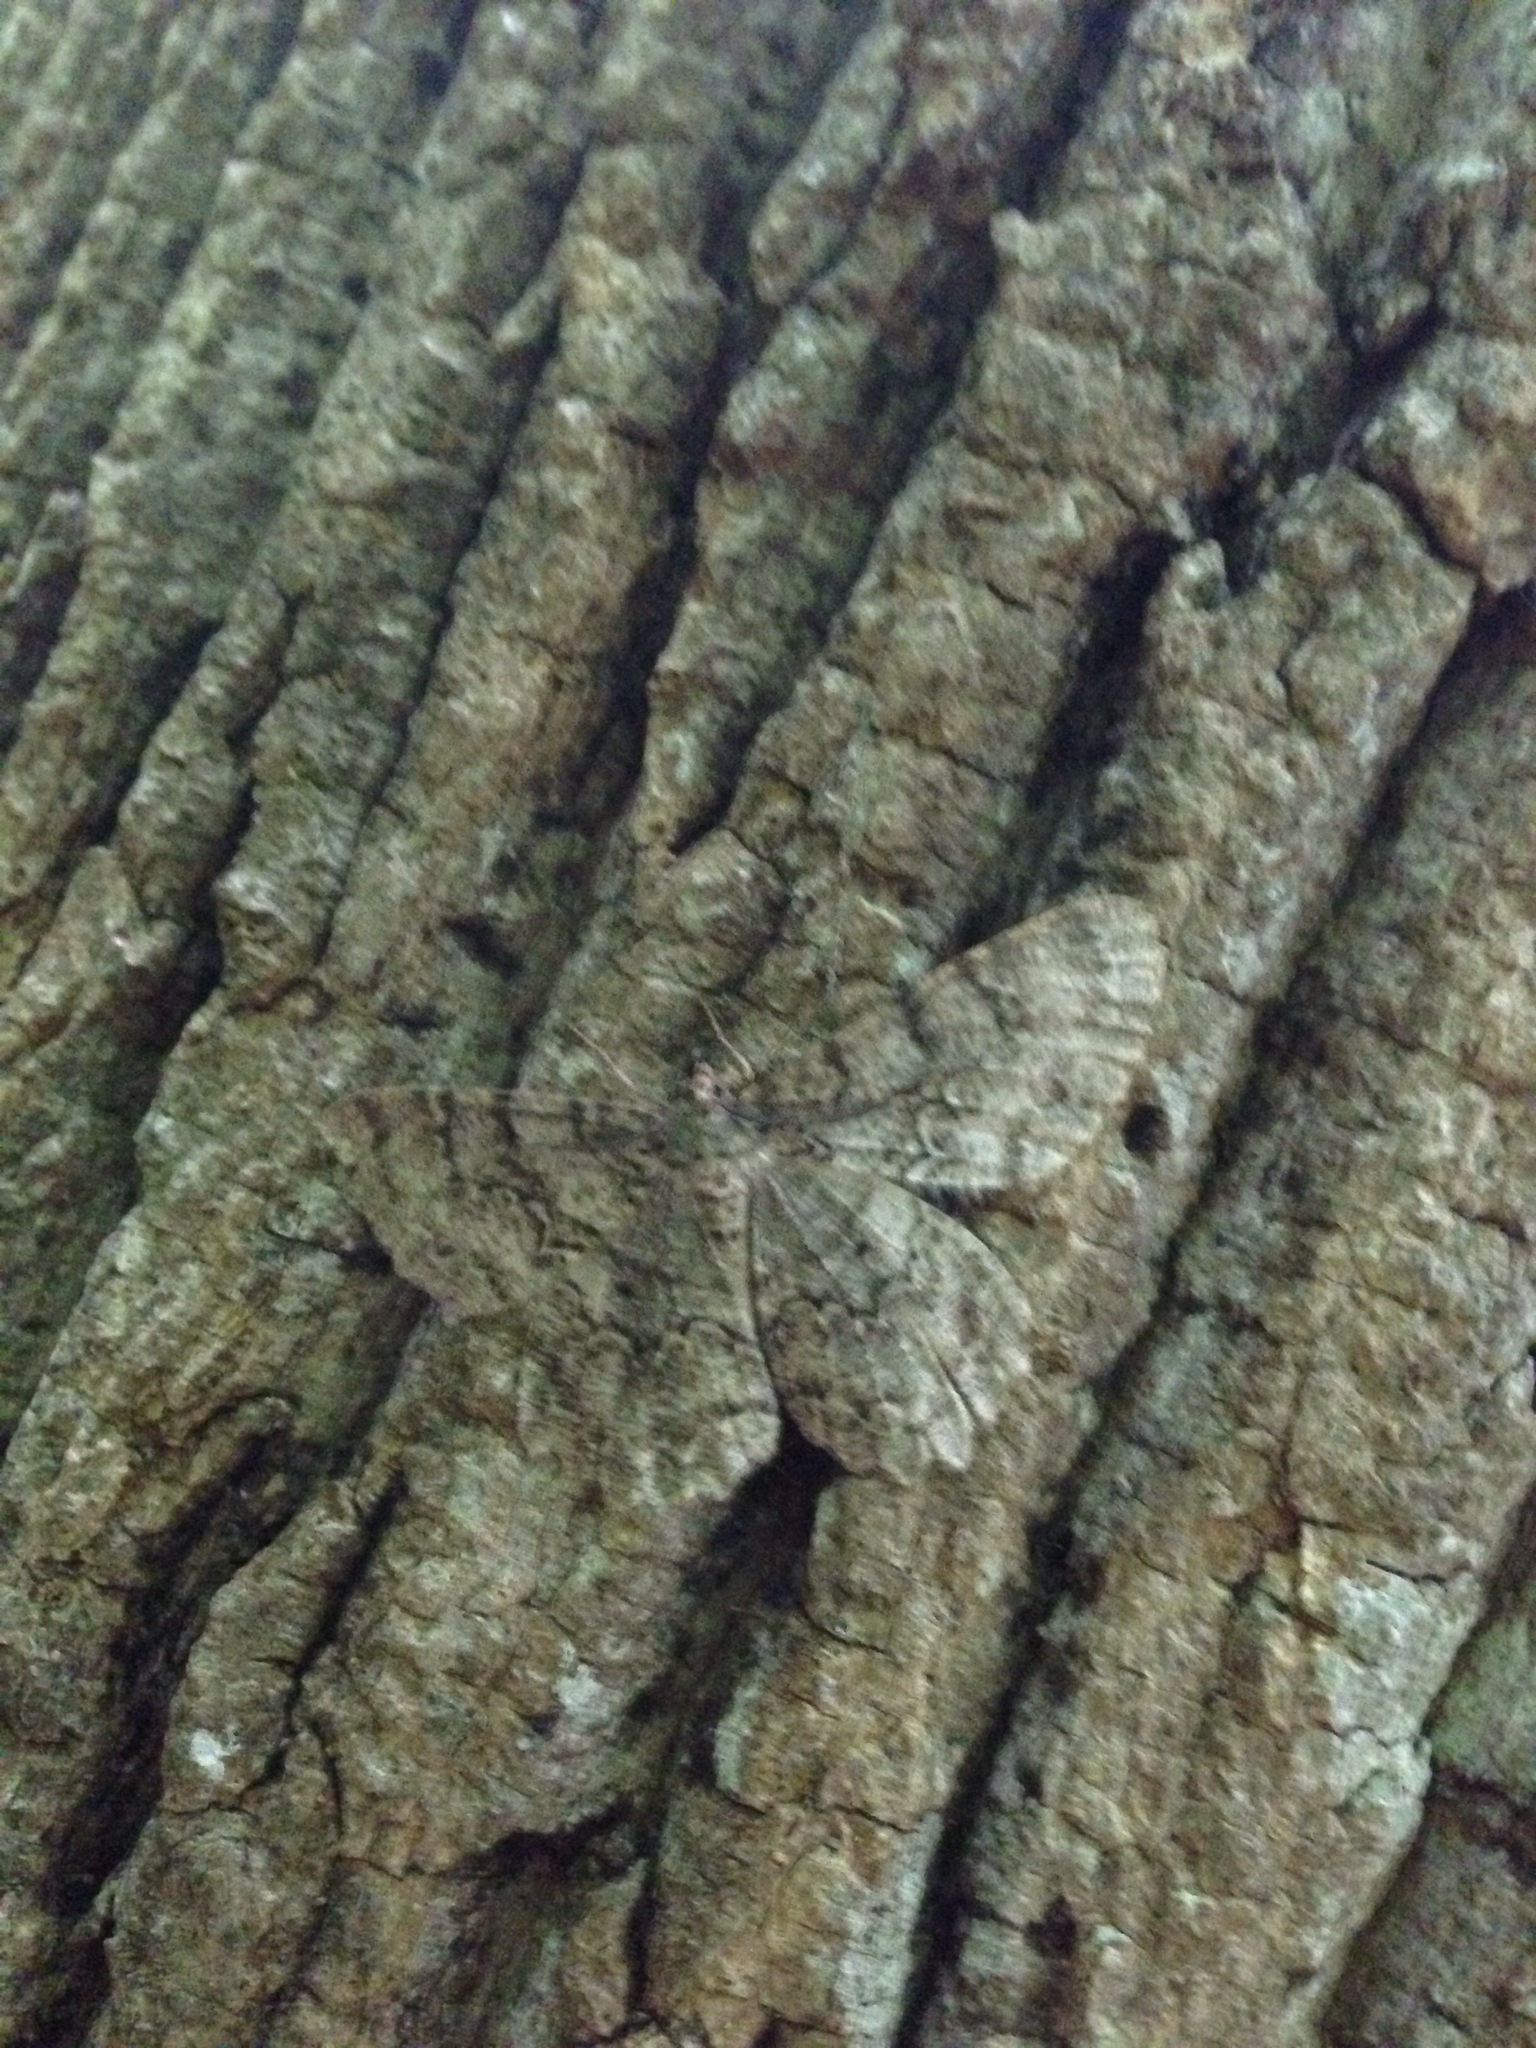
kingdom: Animalia
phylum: Arthropoda
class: Insecta
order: Lepidoptera
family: Geometridae
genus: Epimecis
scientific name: Epimecis hortaria
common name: Tulip-tree beauty
